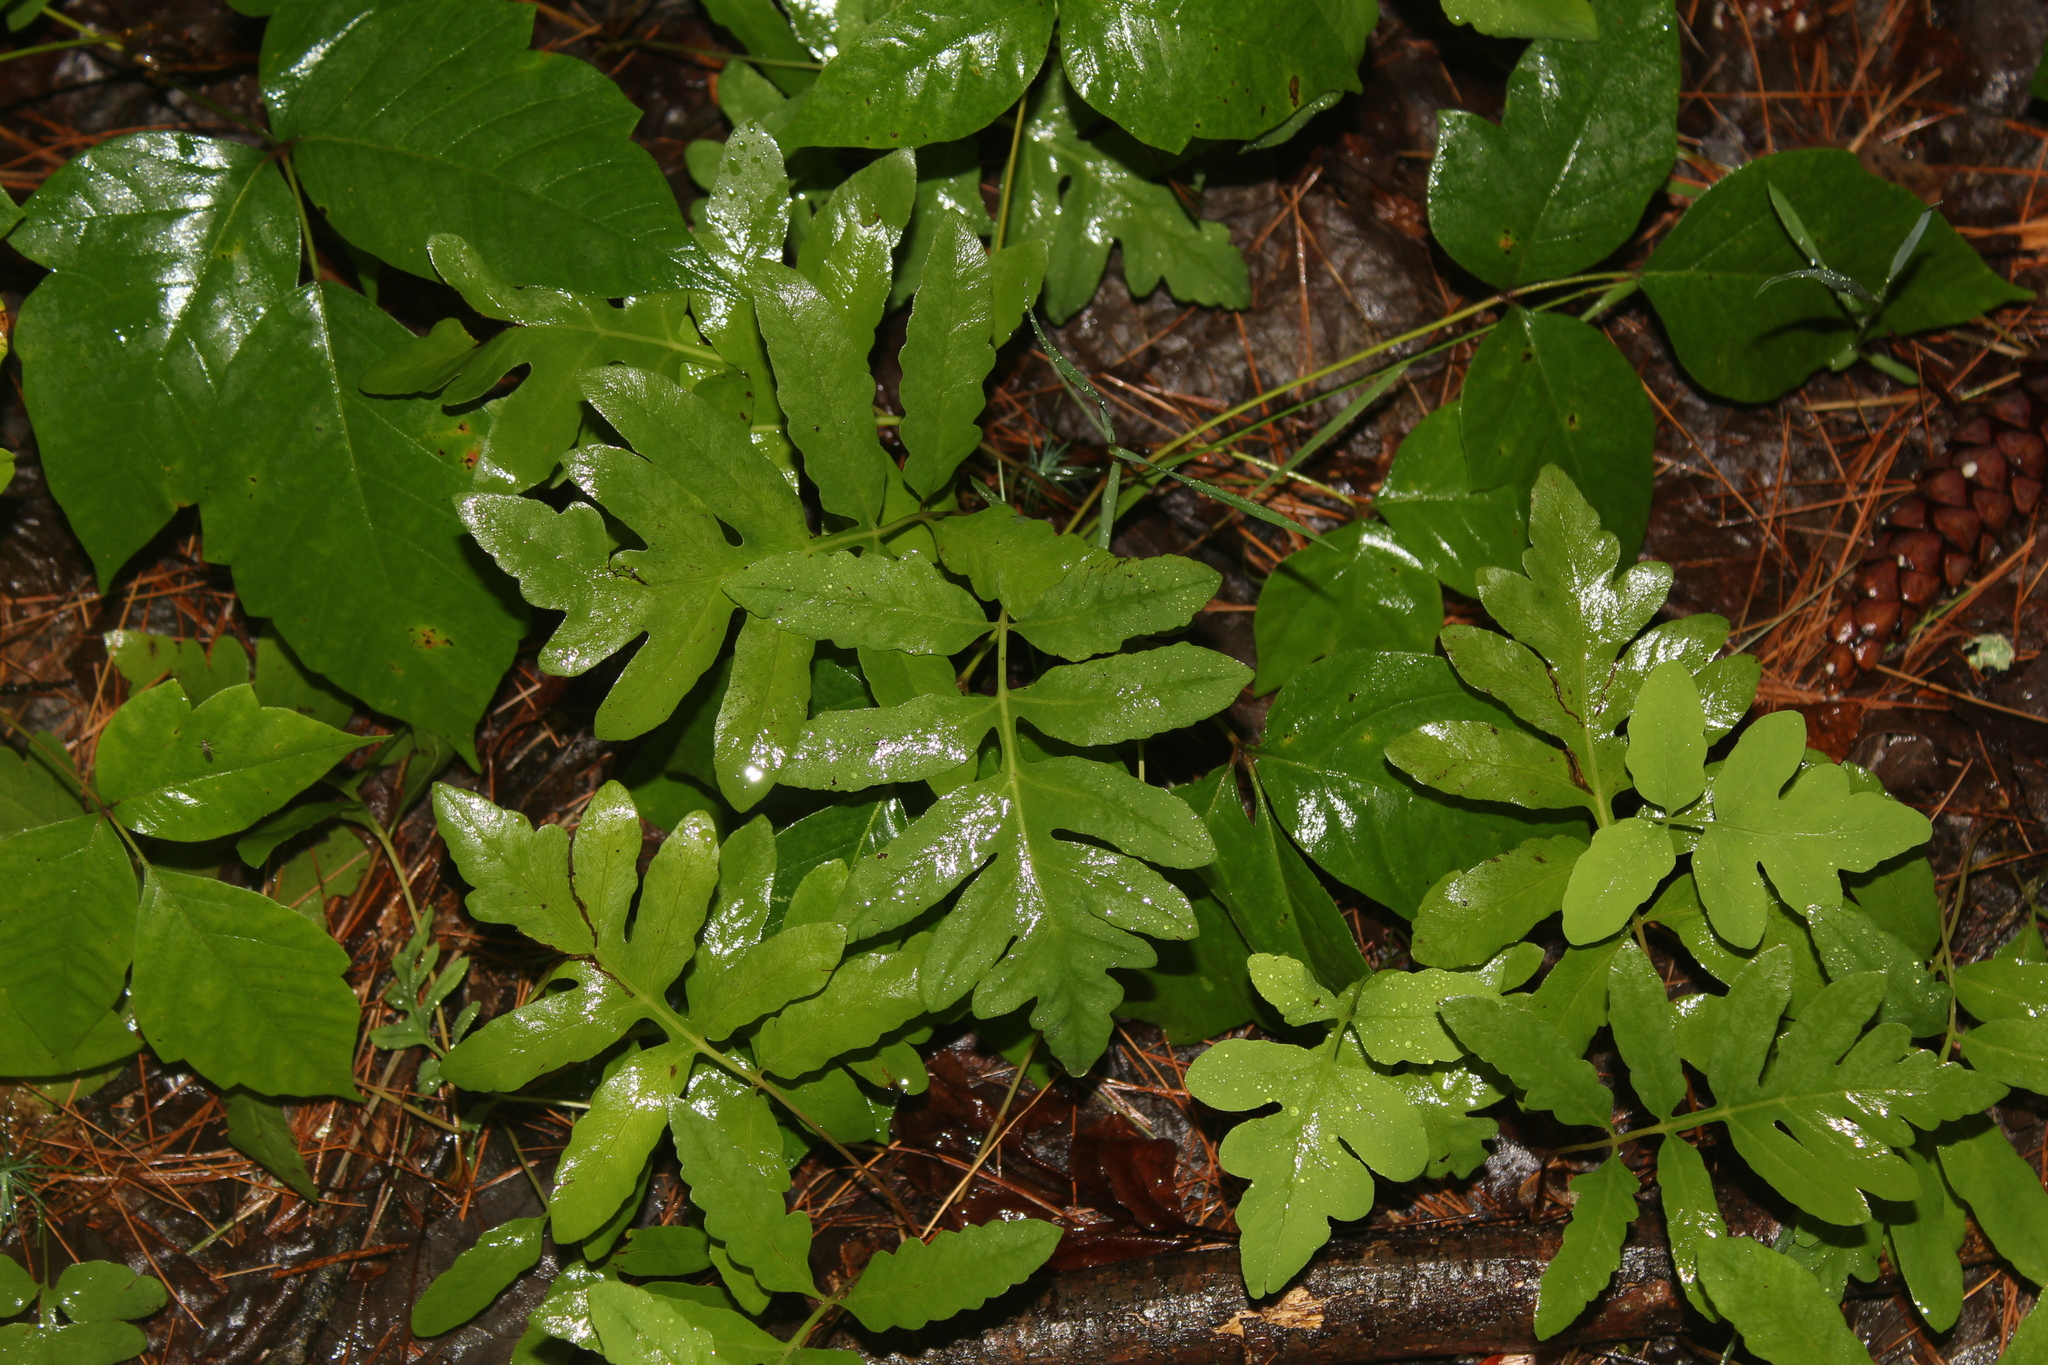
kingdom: Plantae
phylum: Tracheophyta
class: Polypodiopsida
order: Polypodiales
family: Onocleaceae
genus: Onoclea
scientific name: Onoclea sensibilis
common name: Sensitive fern
